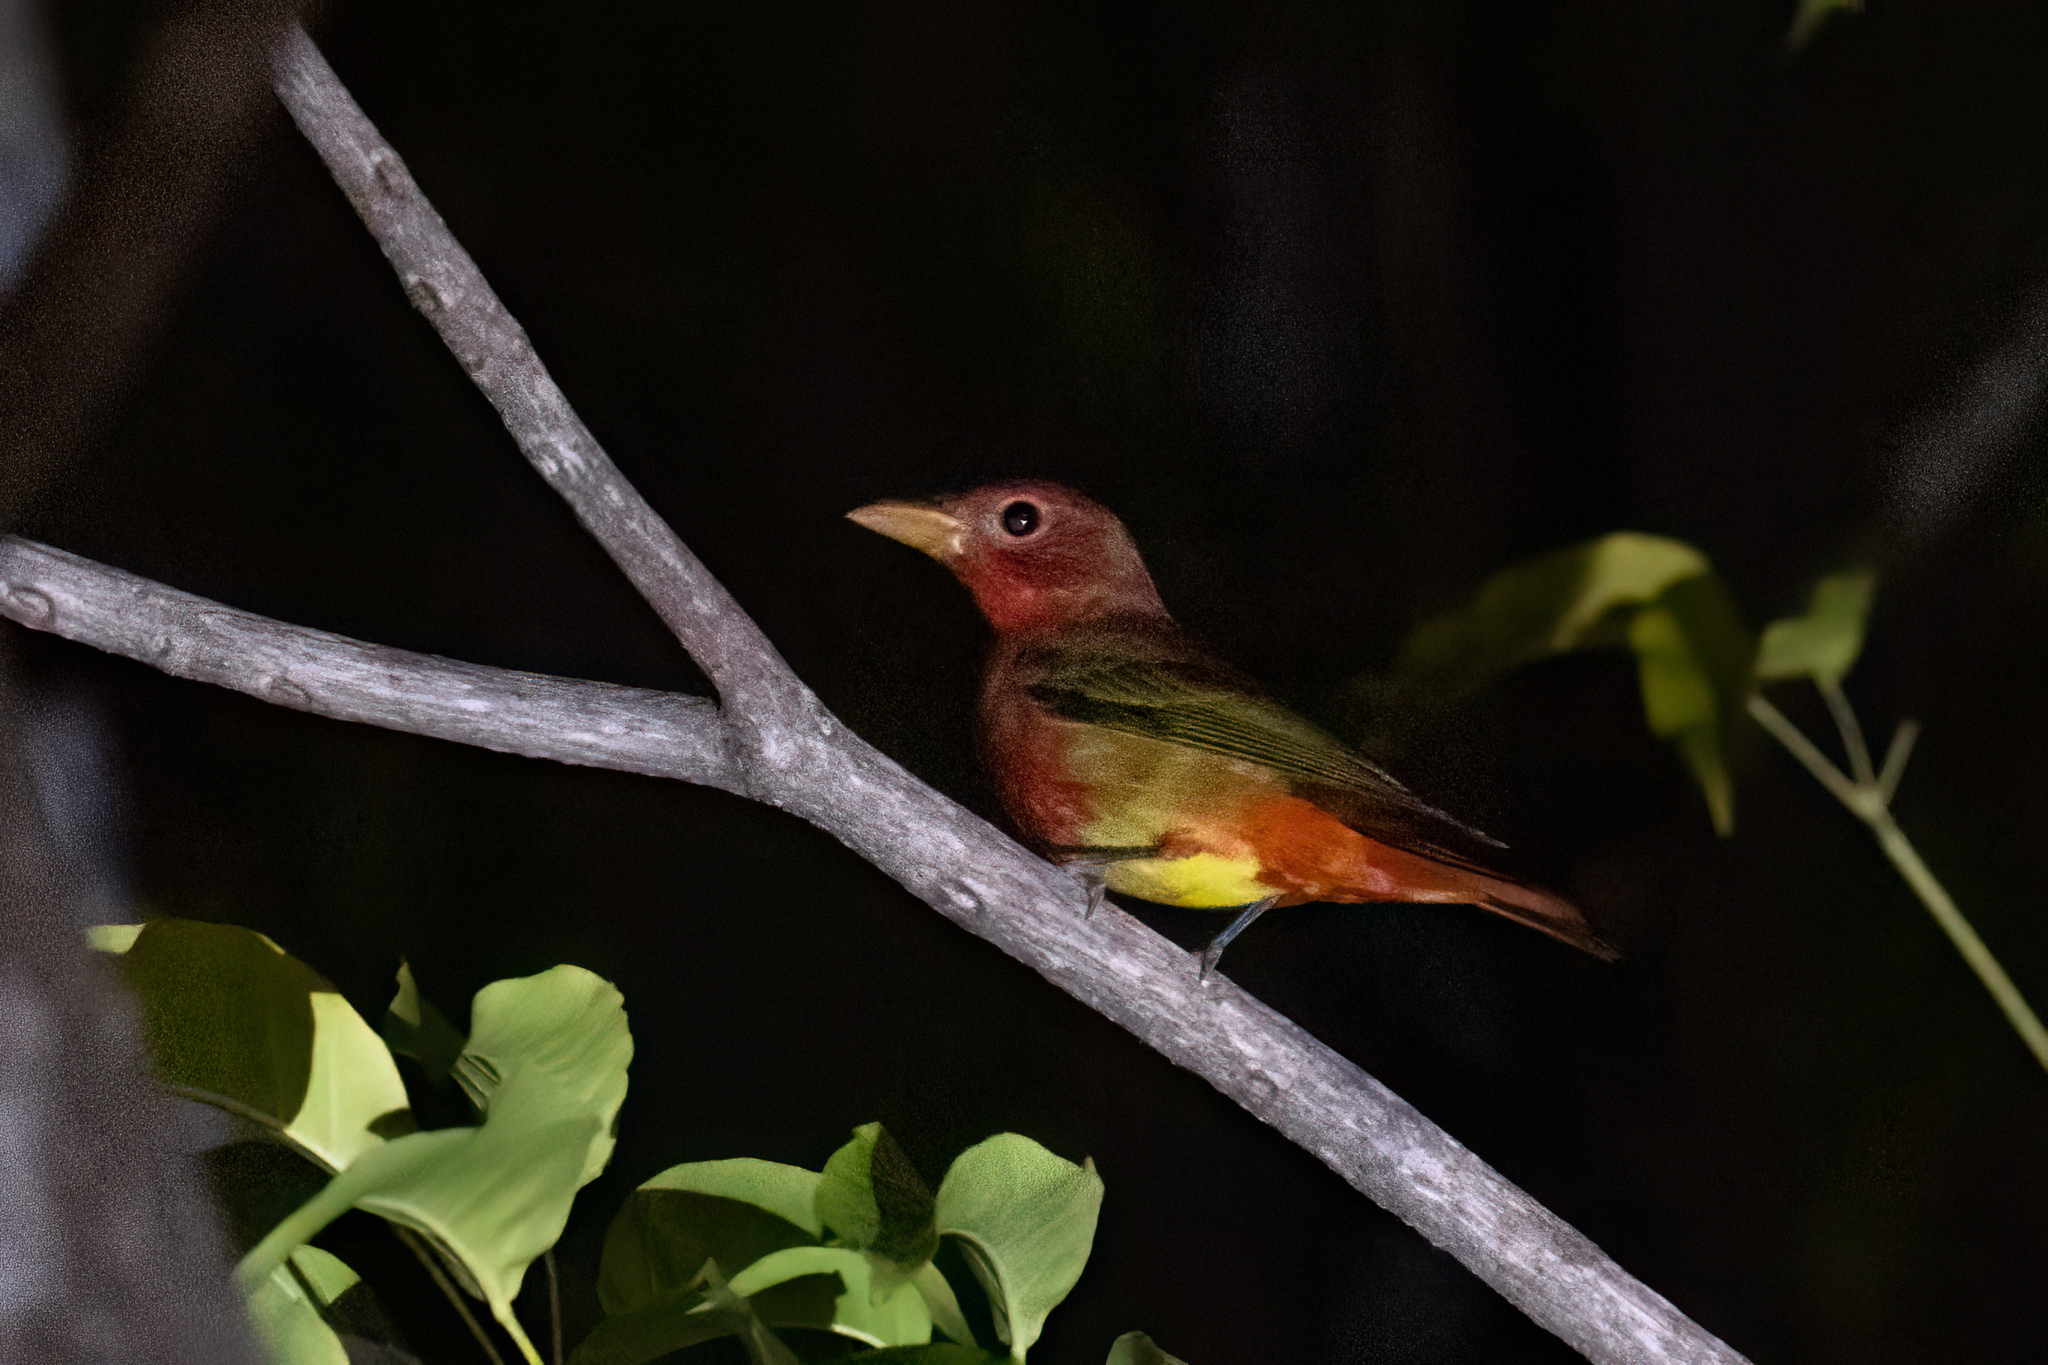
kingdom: Animalia
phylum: Chordata
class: Aves
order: Passeriformes
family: Cardinalidae
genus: Piranga
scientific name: Piranga rubra
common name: Summer tanager
